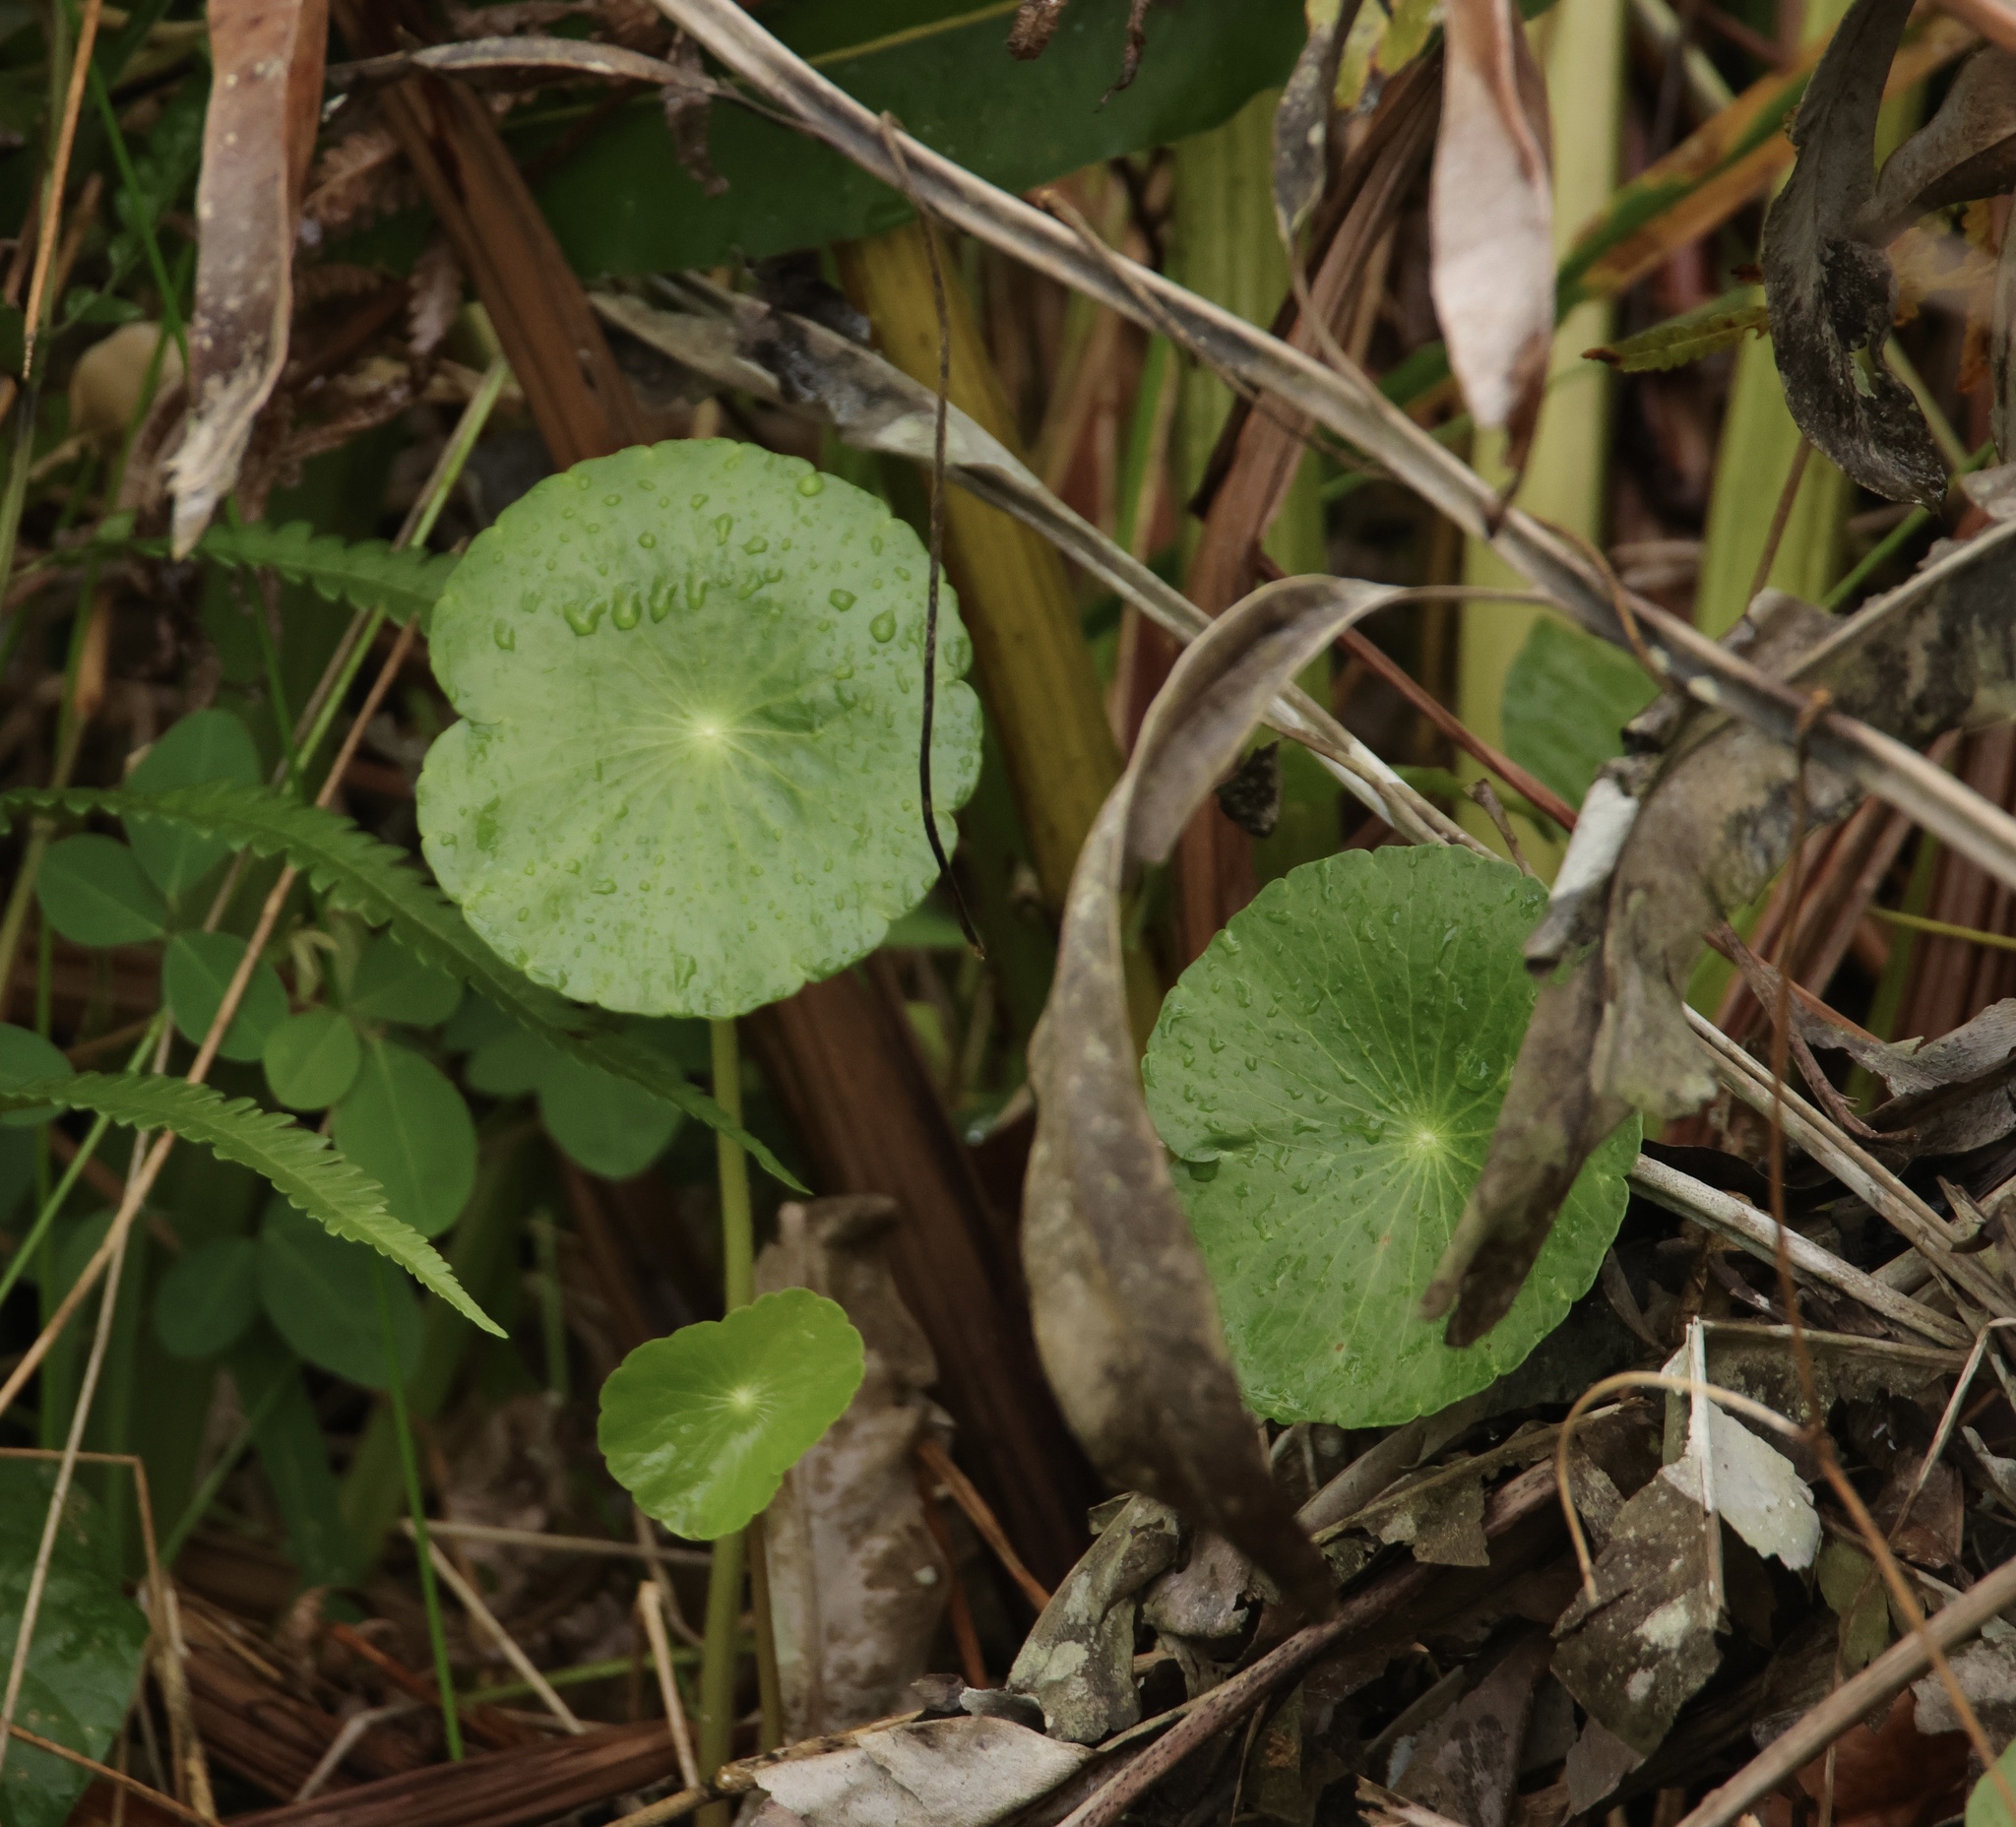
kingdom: Plantae
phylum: Tracheophyta
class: Magnoliopsida
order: Apiales
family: Araliaceae
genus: Hydrocotyle
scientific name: Hydrocotyle verticillata
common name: Whorled marshpennywort
